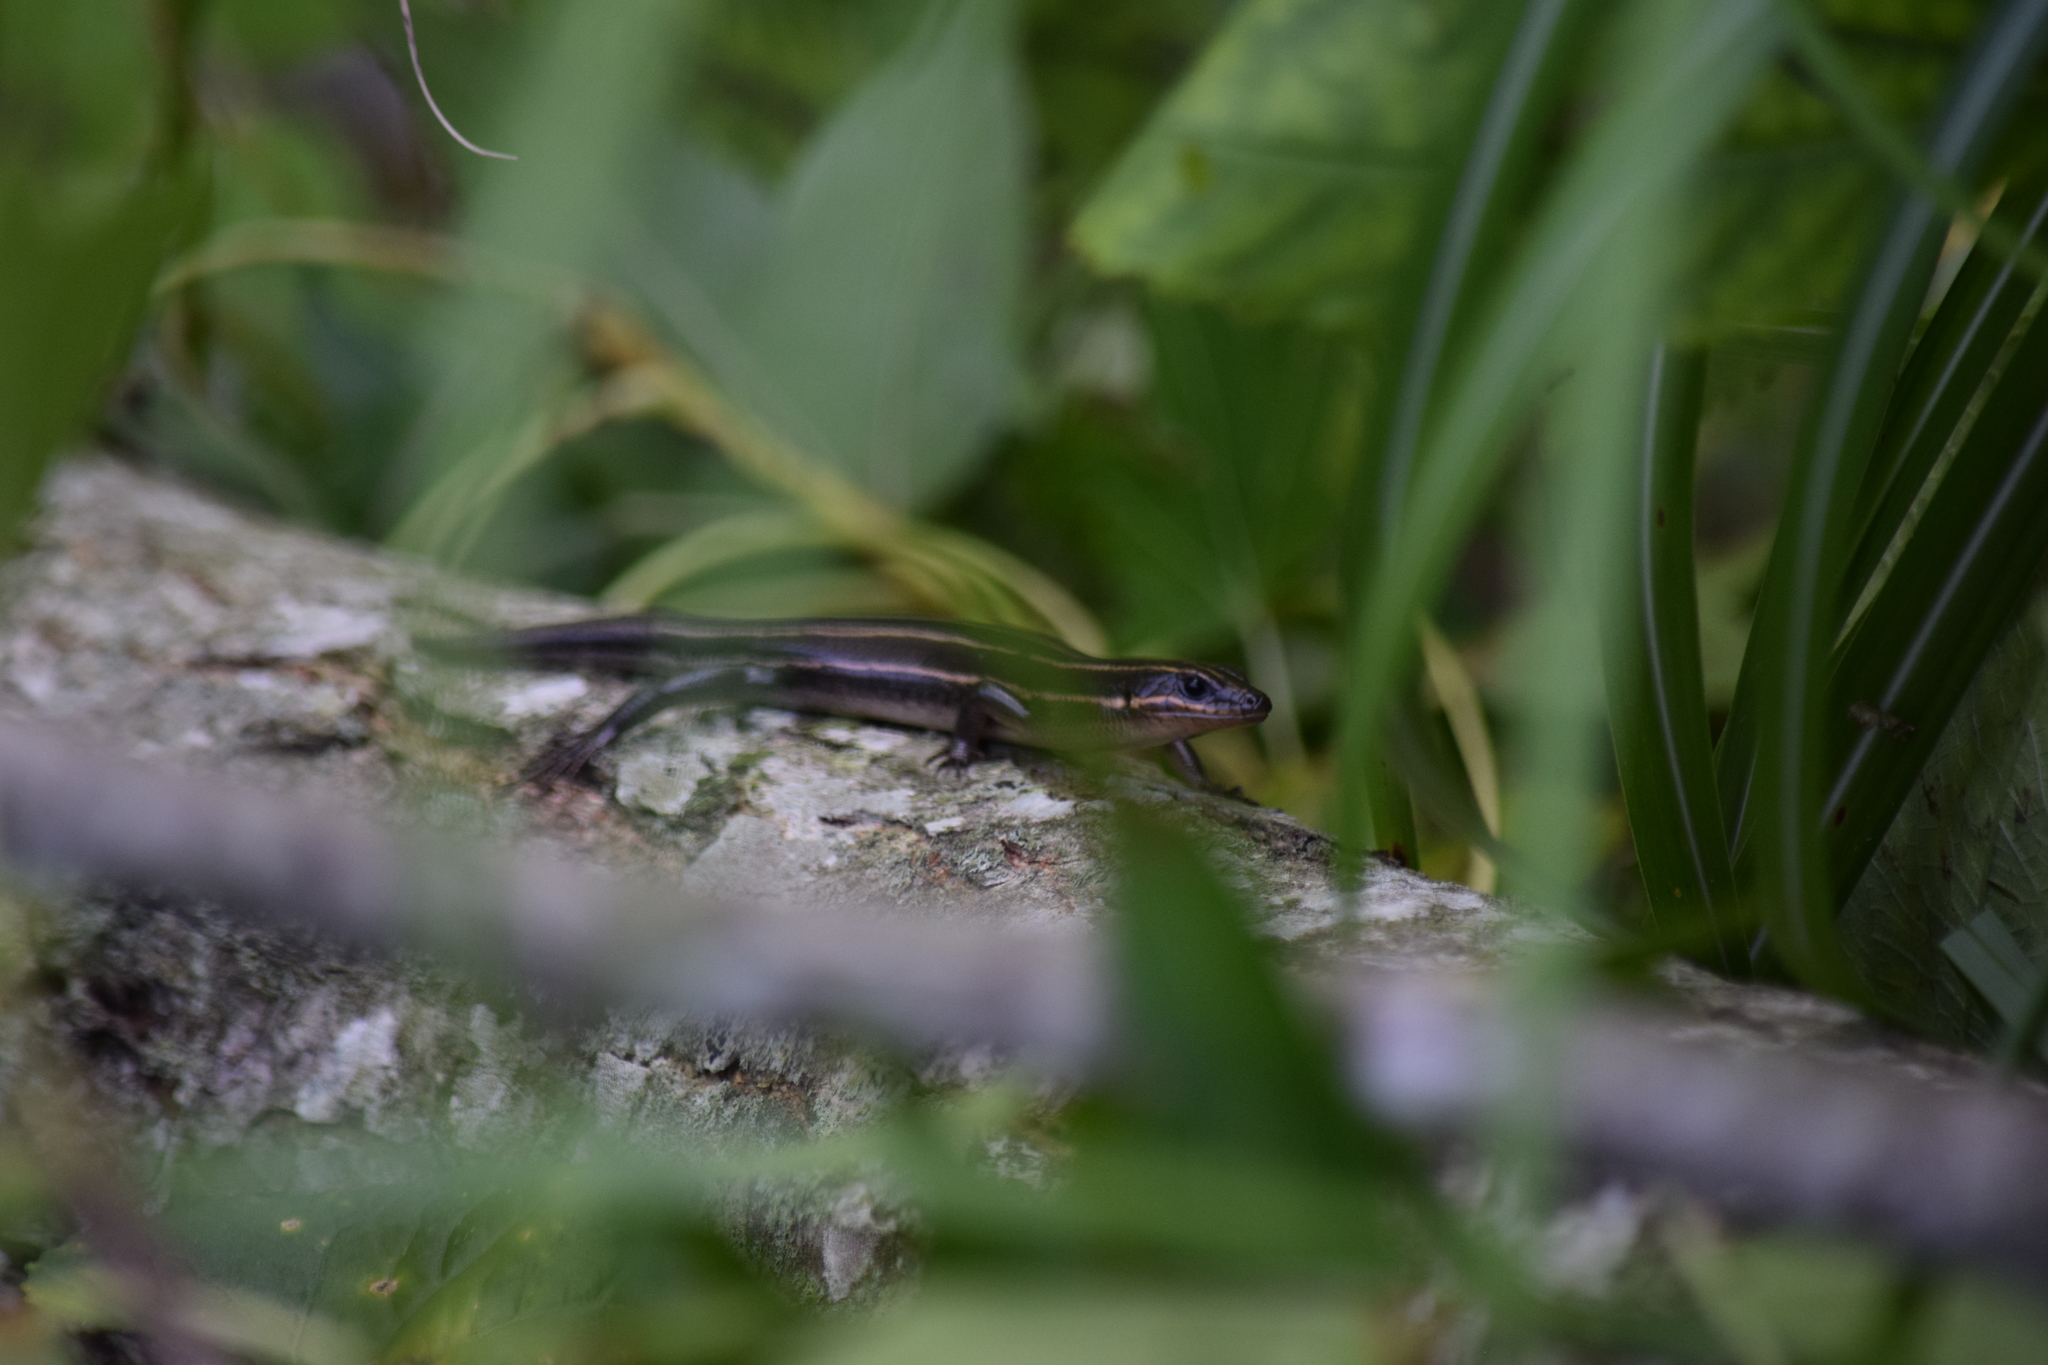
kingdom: Animalia
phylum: Chordata
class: Squamata
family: Scincidae
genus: Plestiodon
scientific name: Plestiodon fasciatus
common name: Five-lined skink
